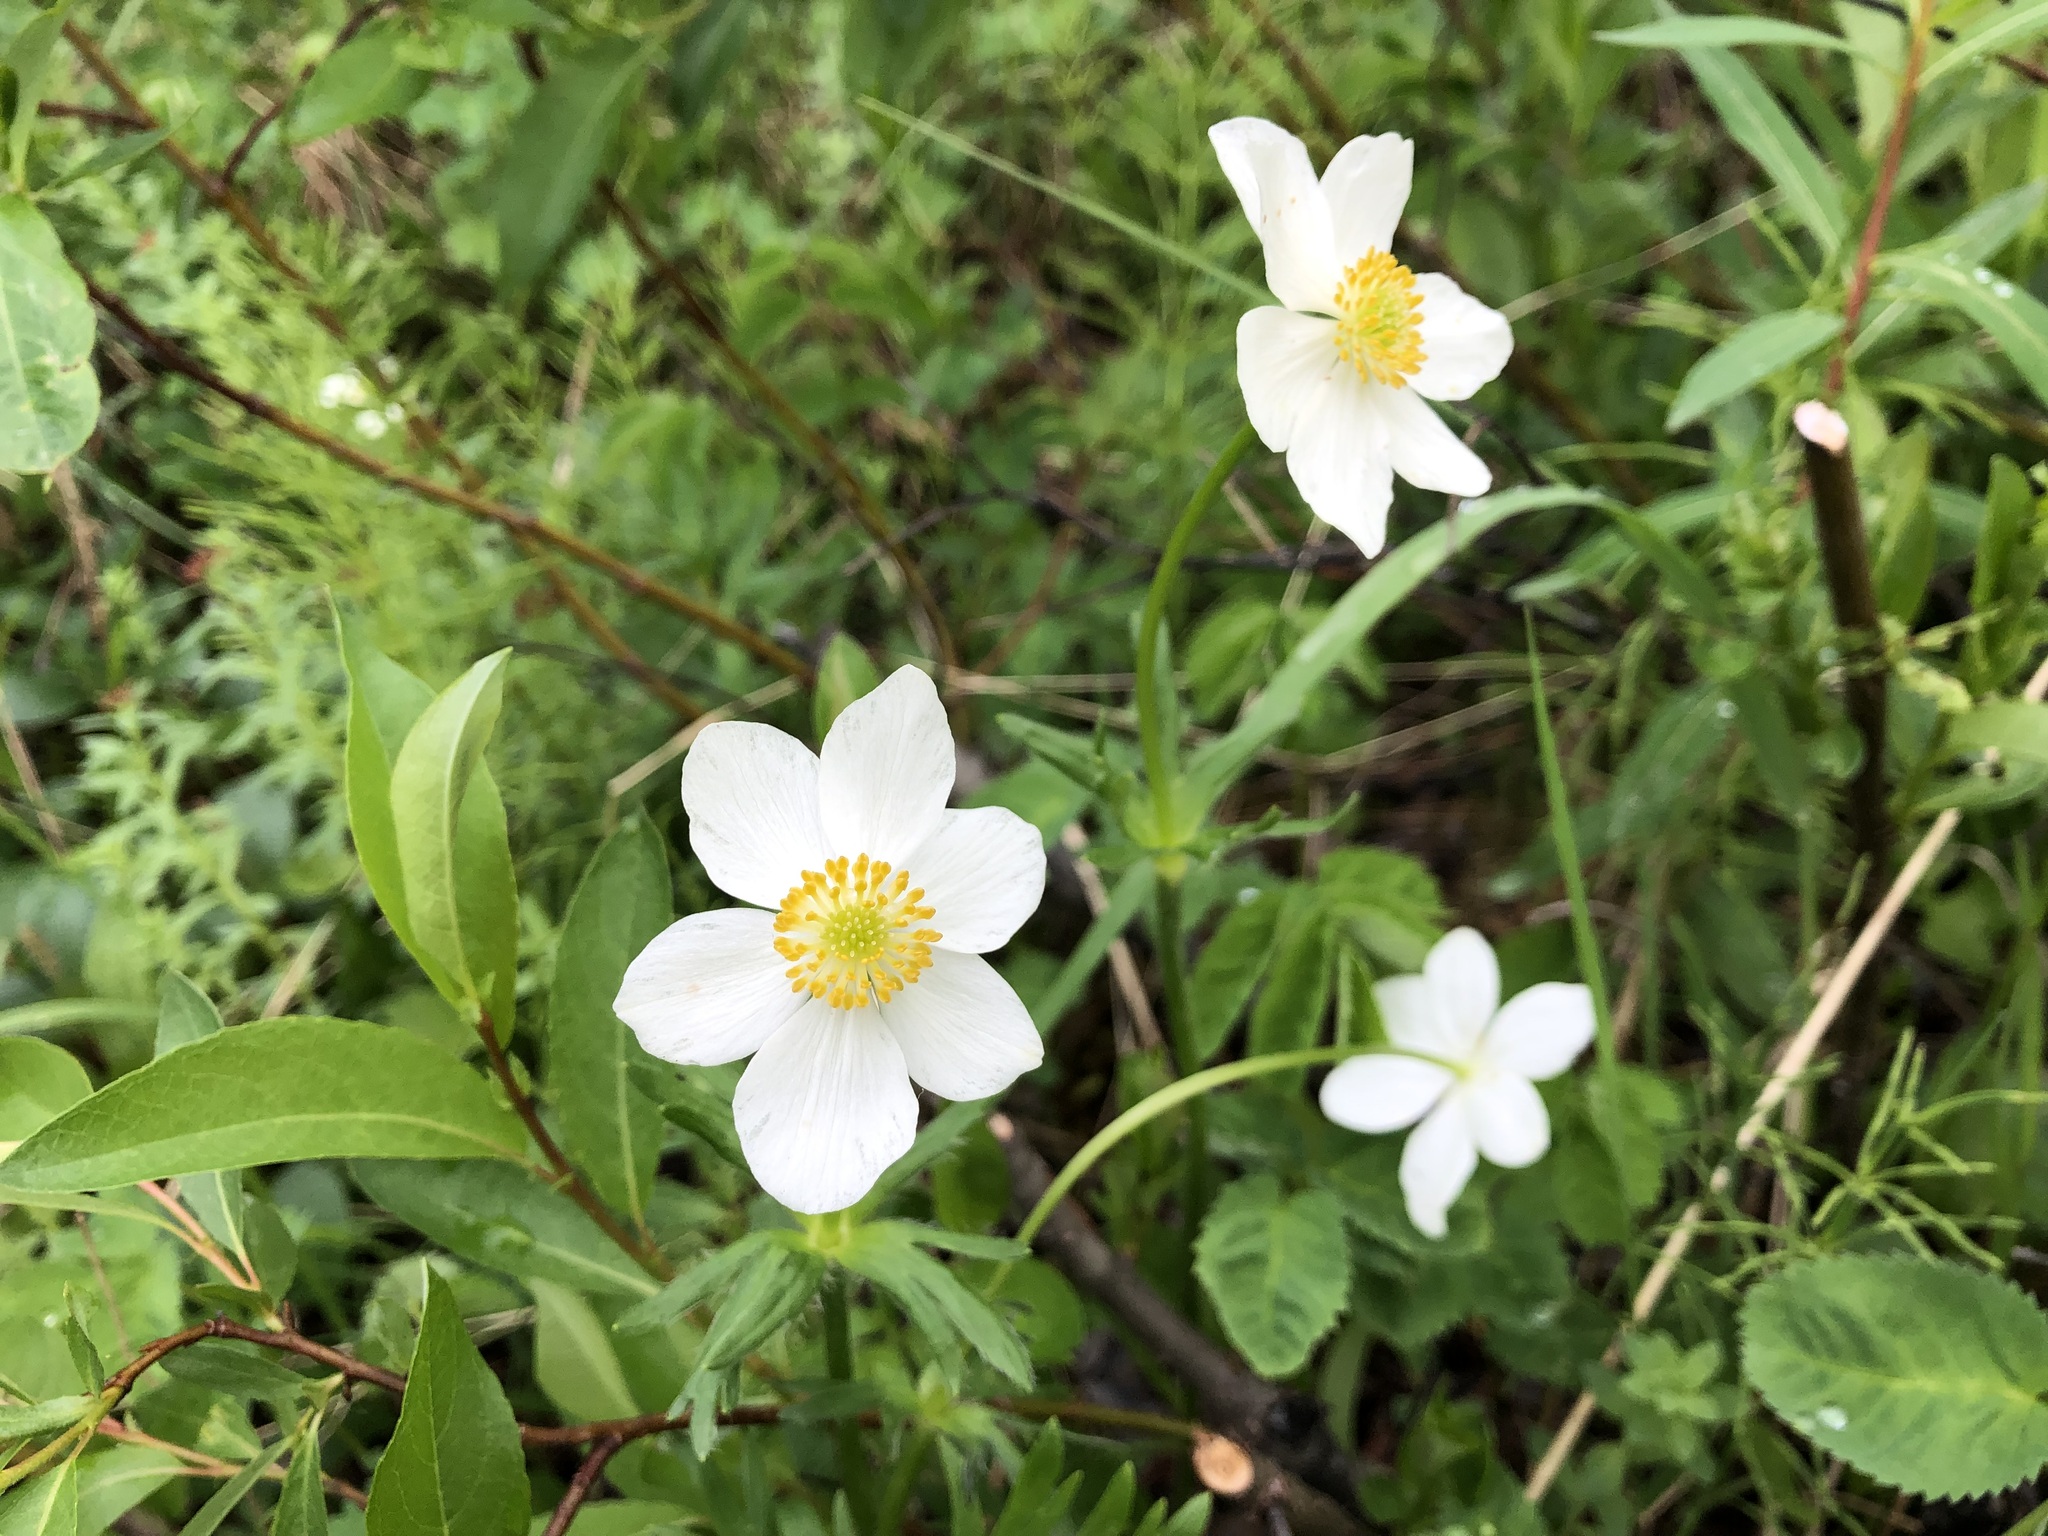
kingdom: Plantae
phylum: Tracheophyta
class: Magnoliopsida
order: Ranunculales
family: Ranunculaceae
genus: Anemonastrum
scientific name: Anemonastrum narcissiflorum
